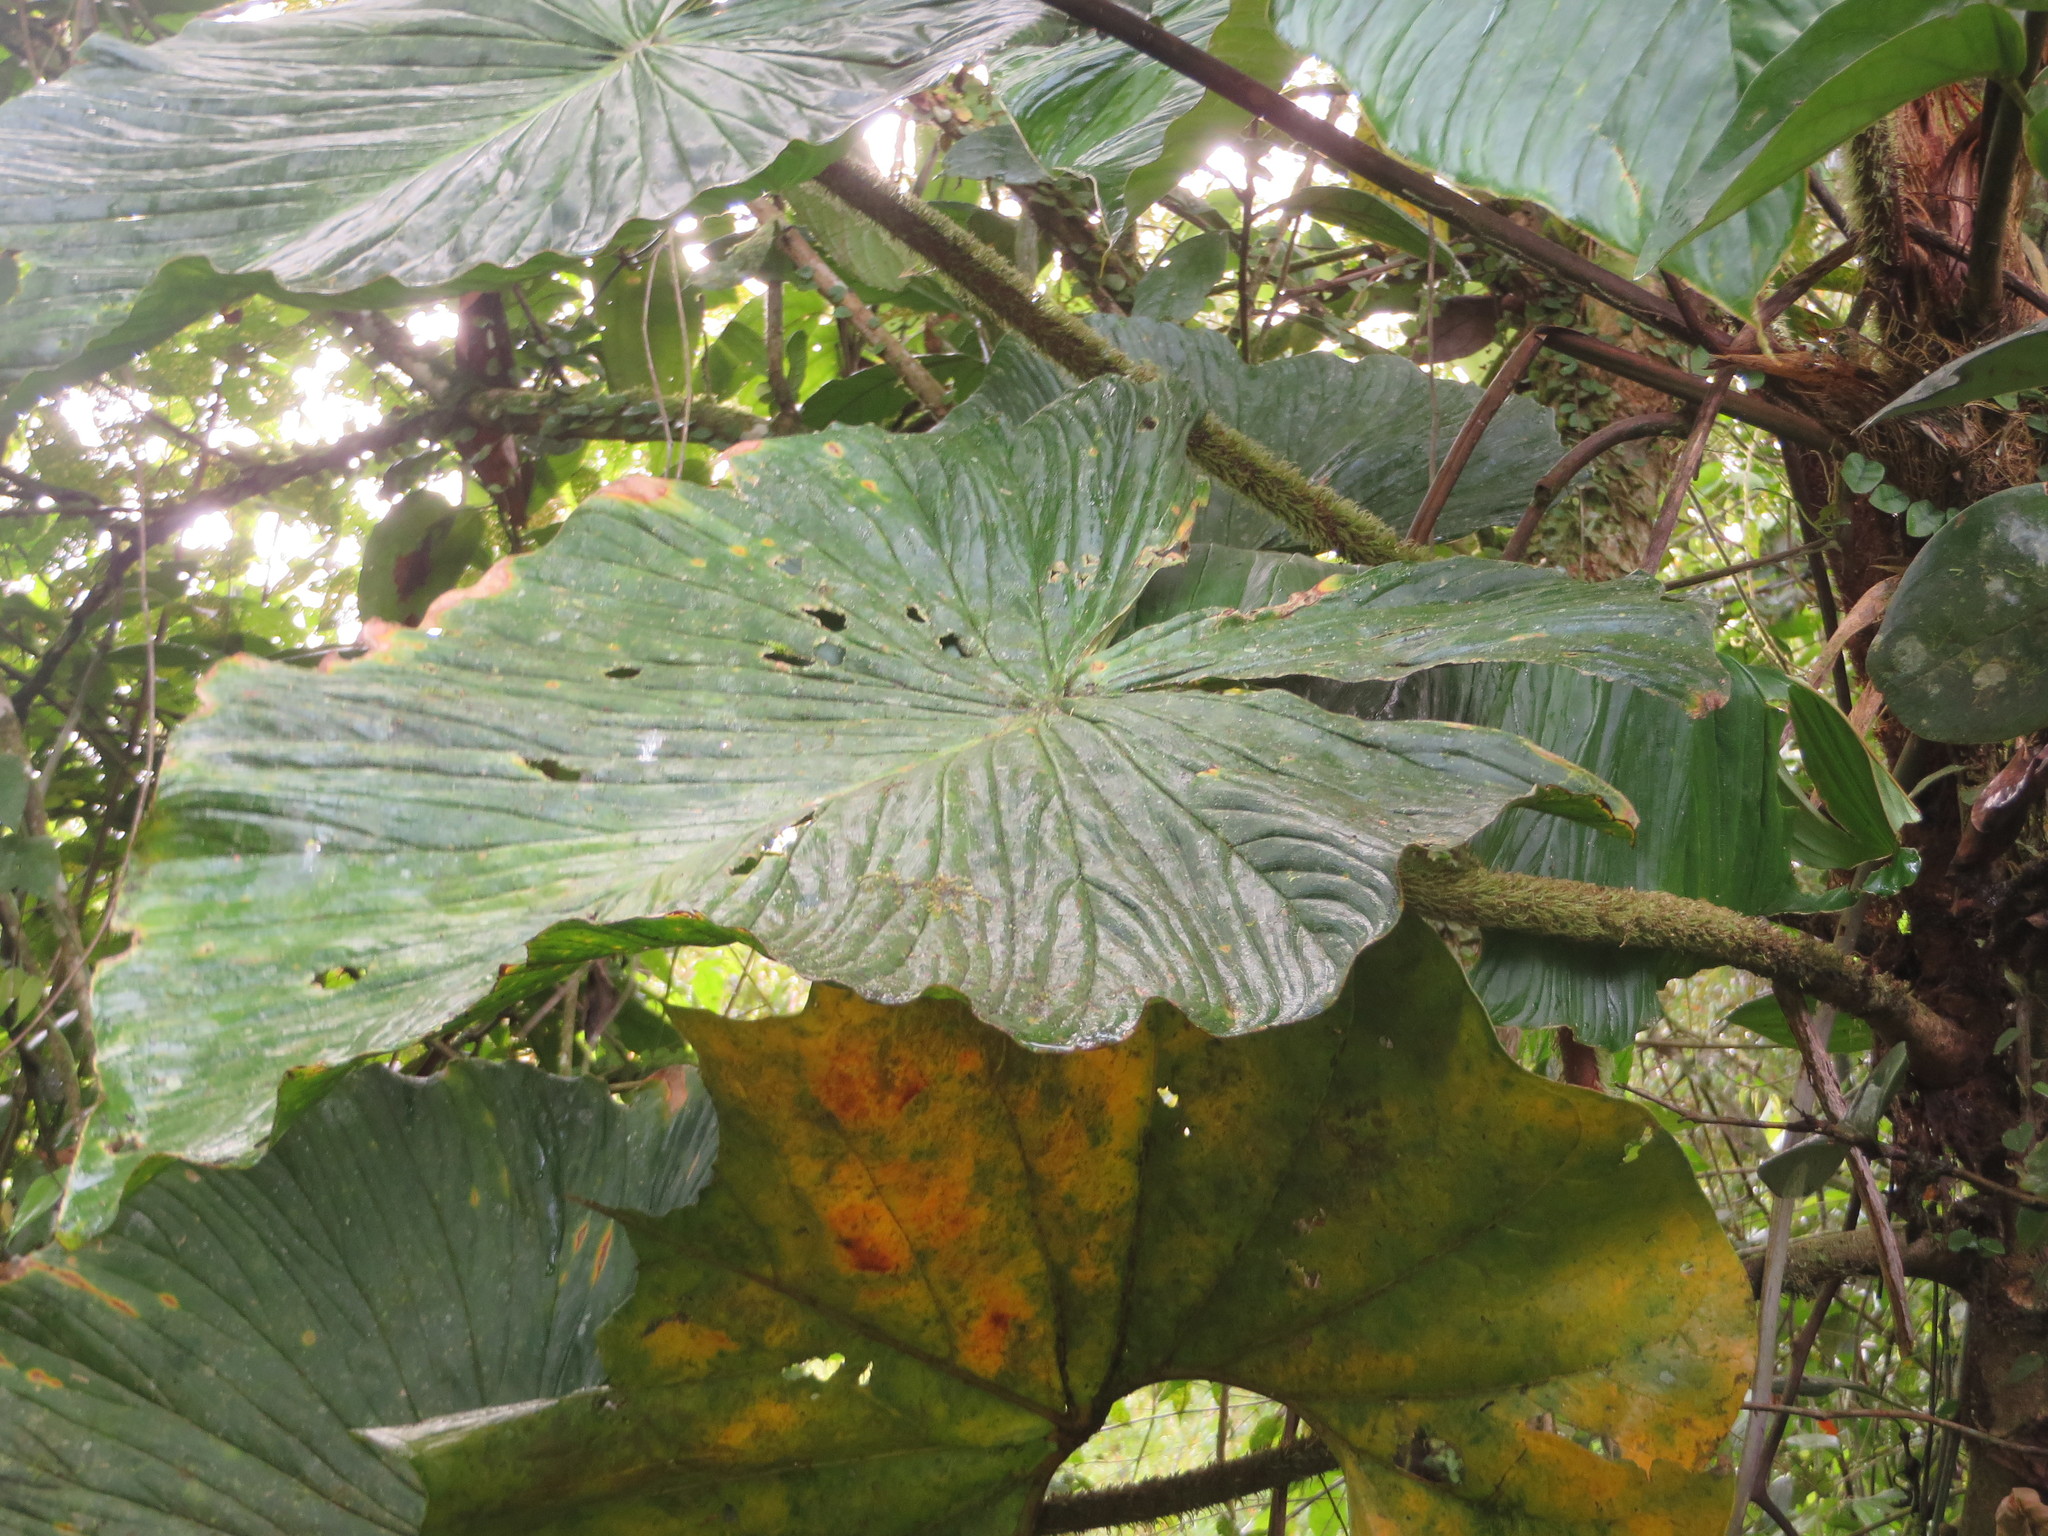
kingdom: Plantae
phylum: Tracheophyta
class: Liliopsida
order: Alismatales
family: Araceae
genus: Philodendron
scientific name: Philodendron fibrosum
